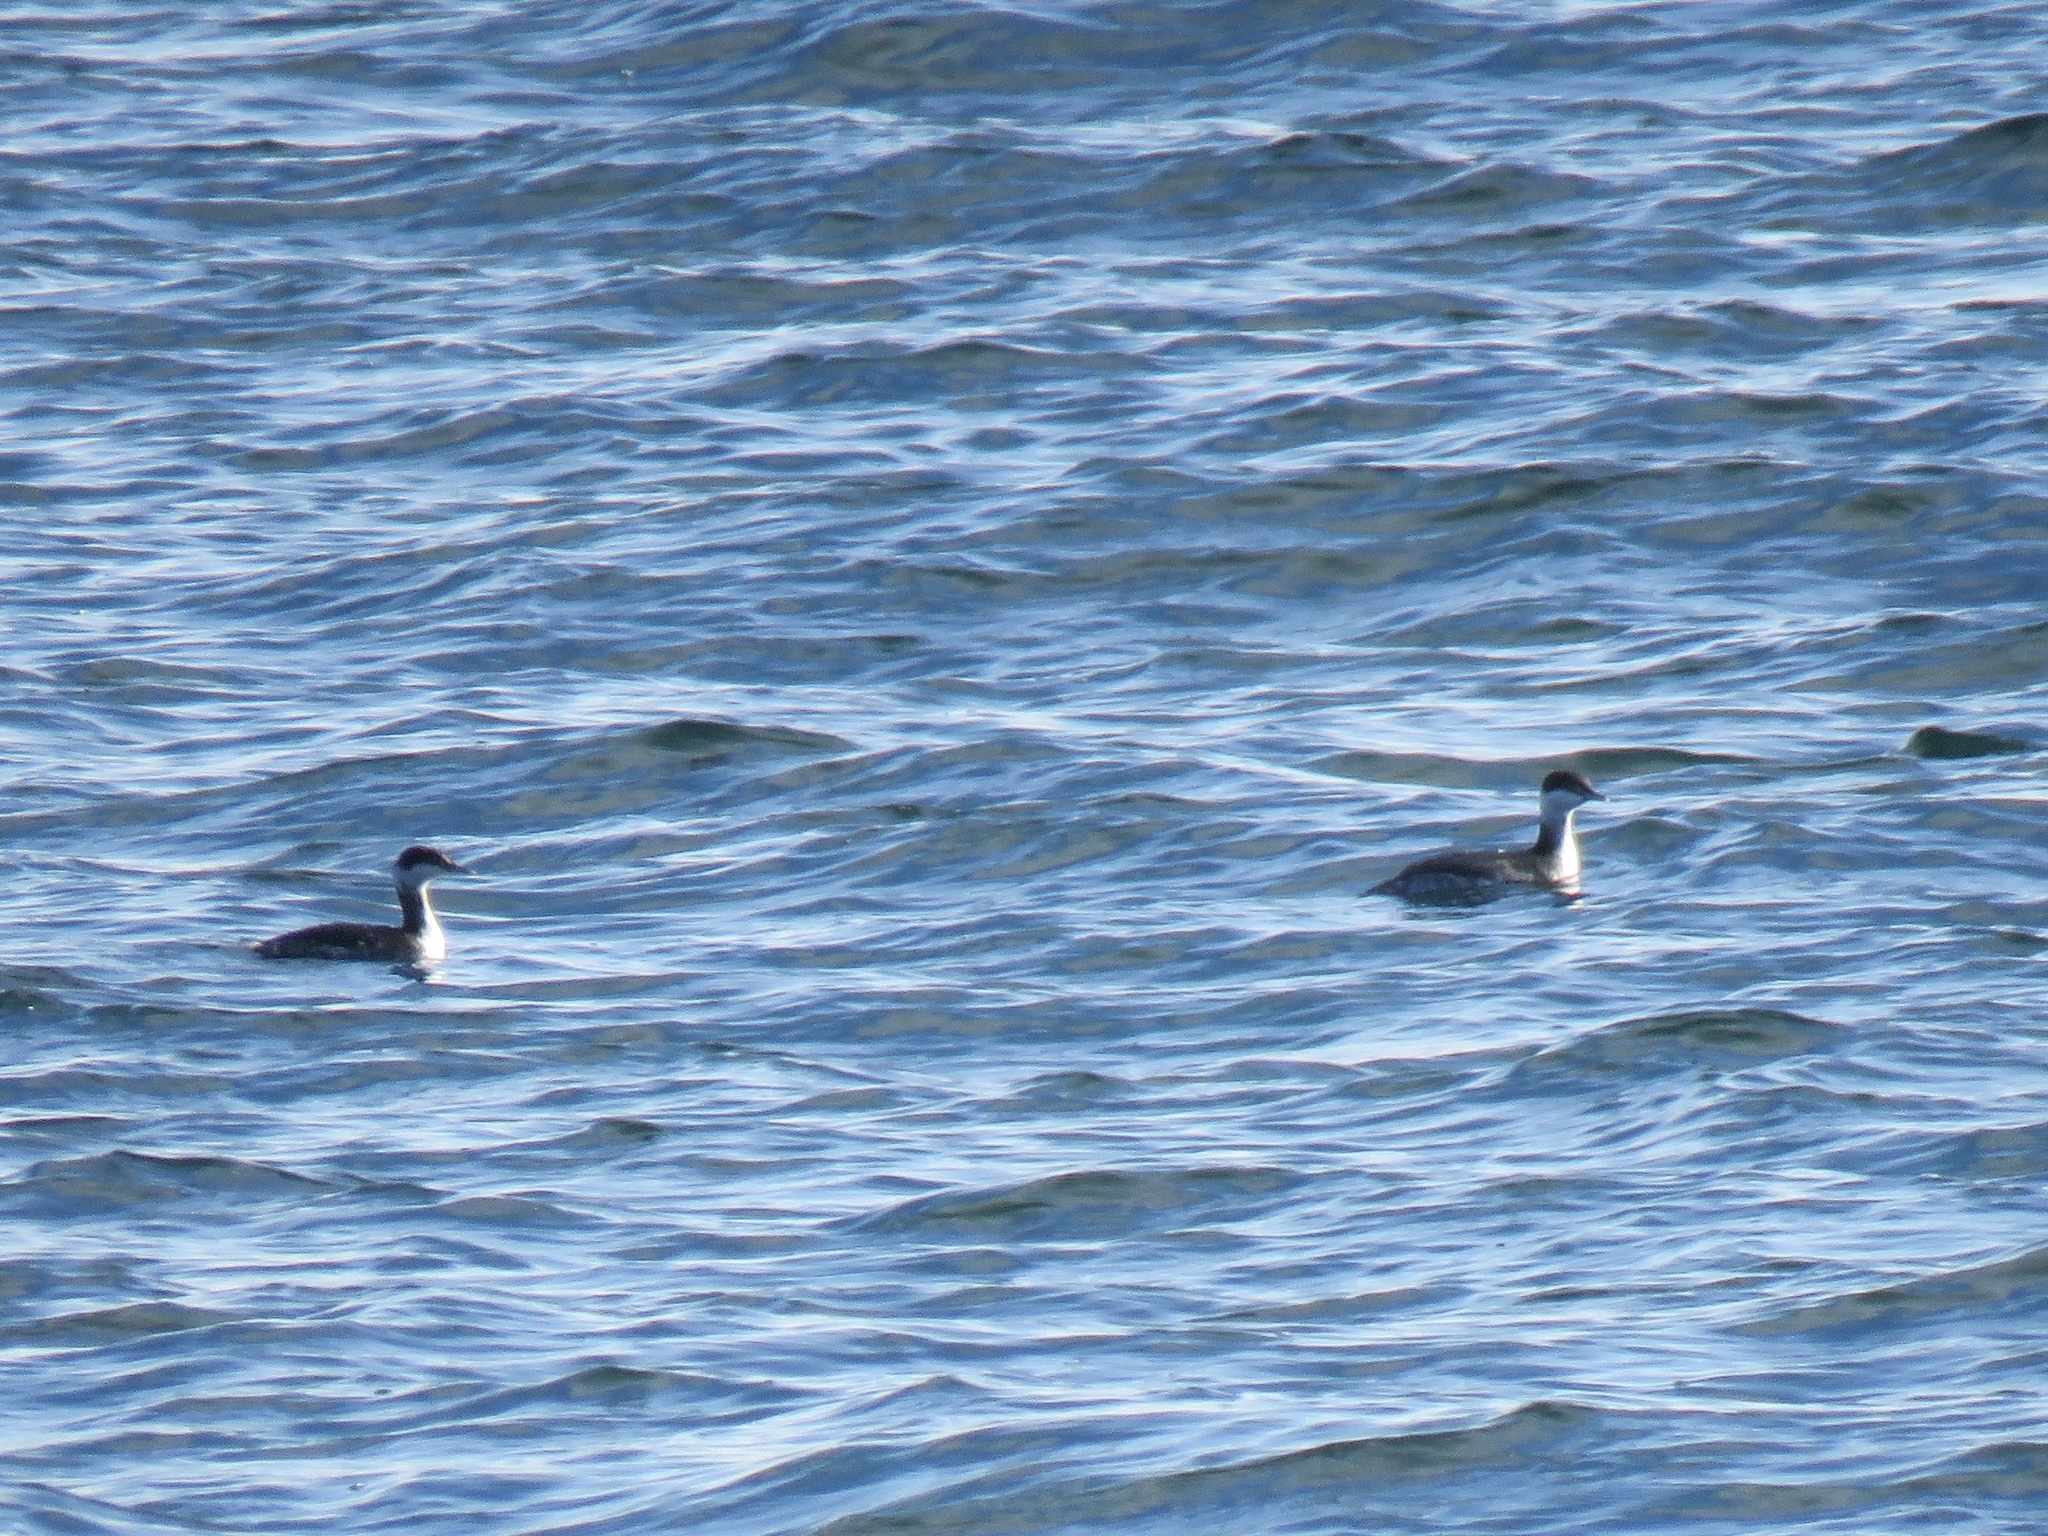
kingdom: Animalia
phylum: Chordata
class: Aves
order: Podicipediformes
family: Podicipedidae
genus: Podiceps
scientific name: Podiceps auritus
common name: Horned grebe
